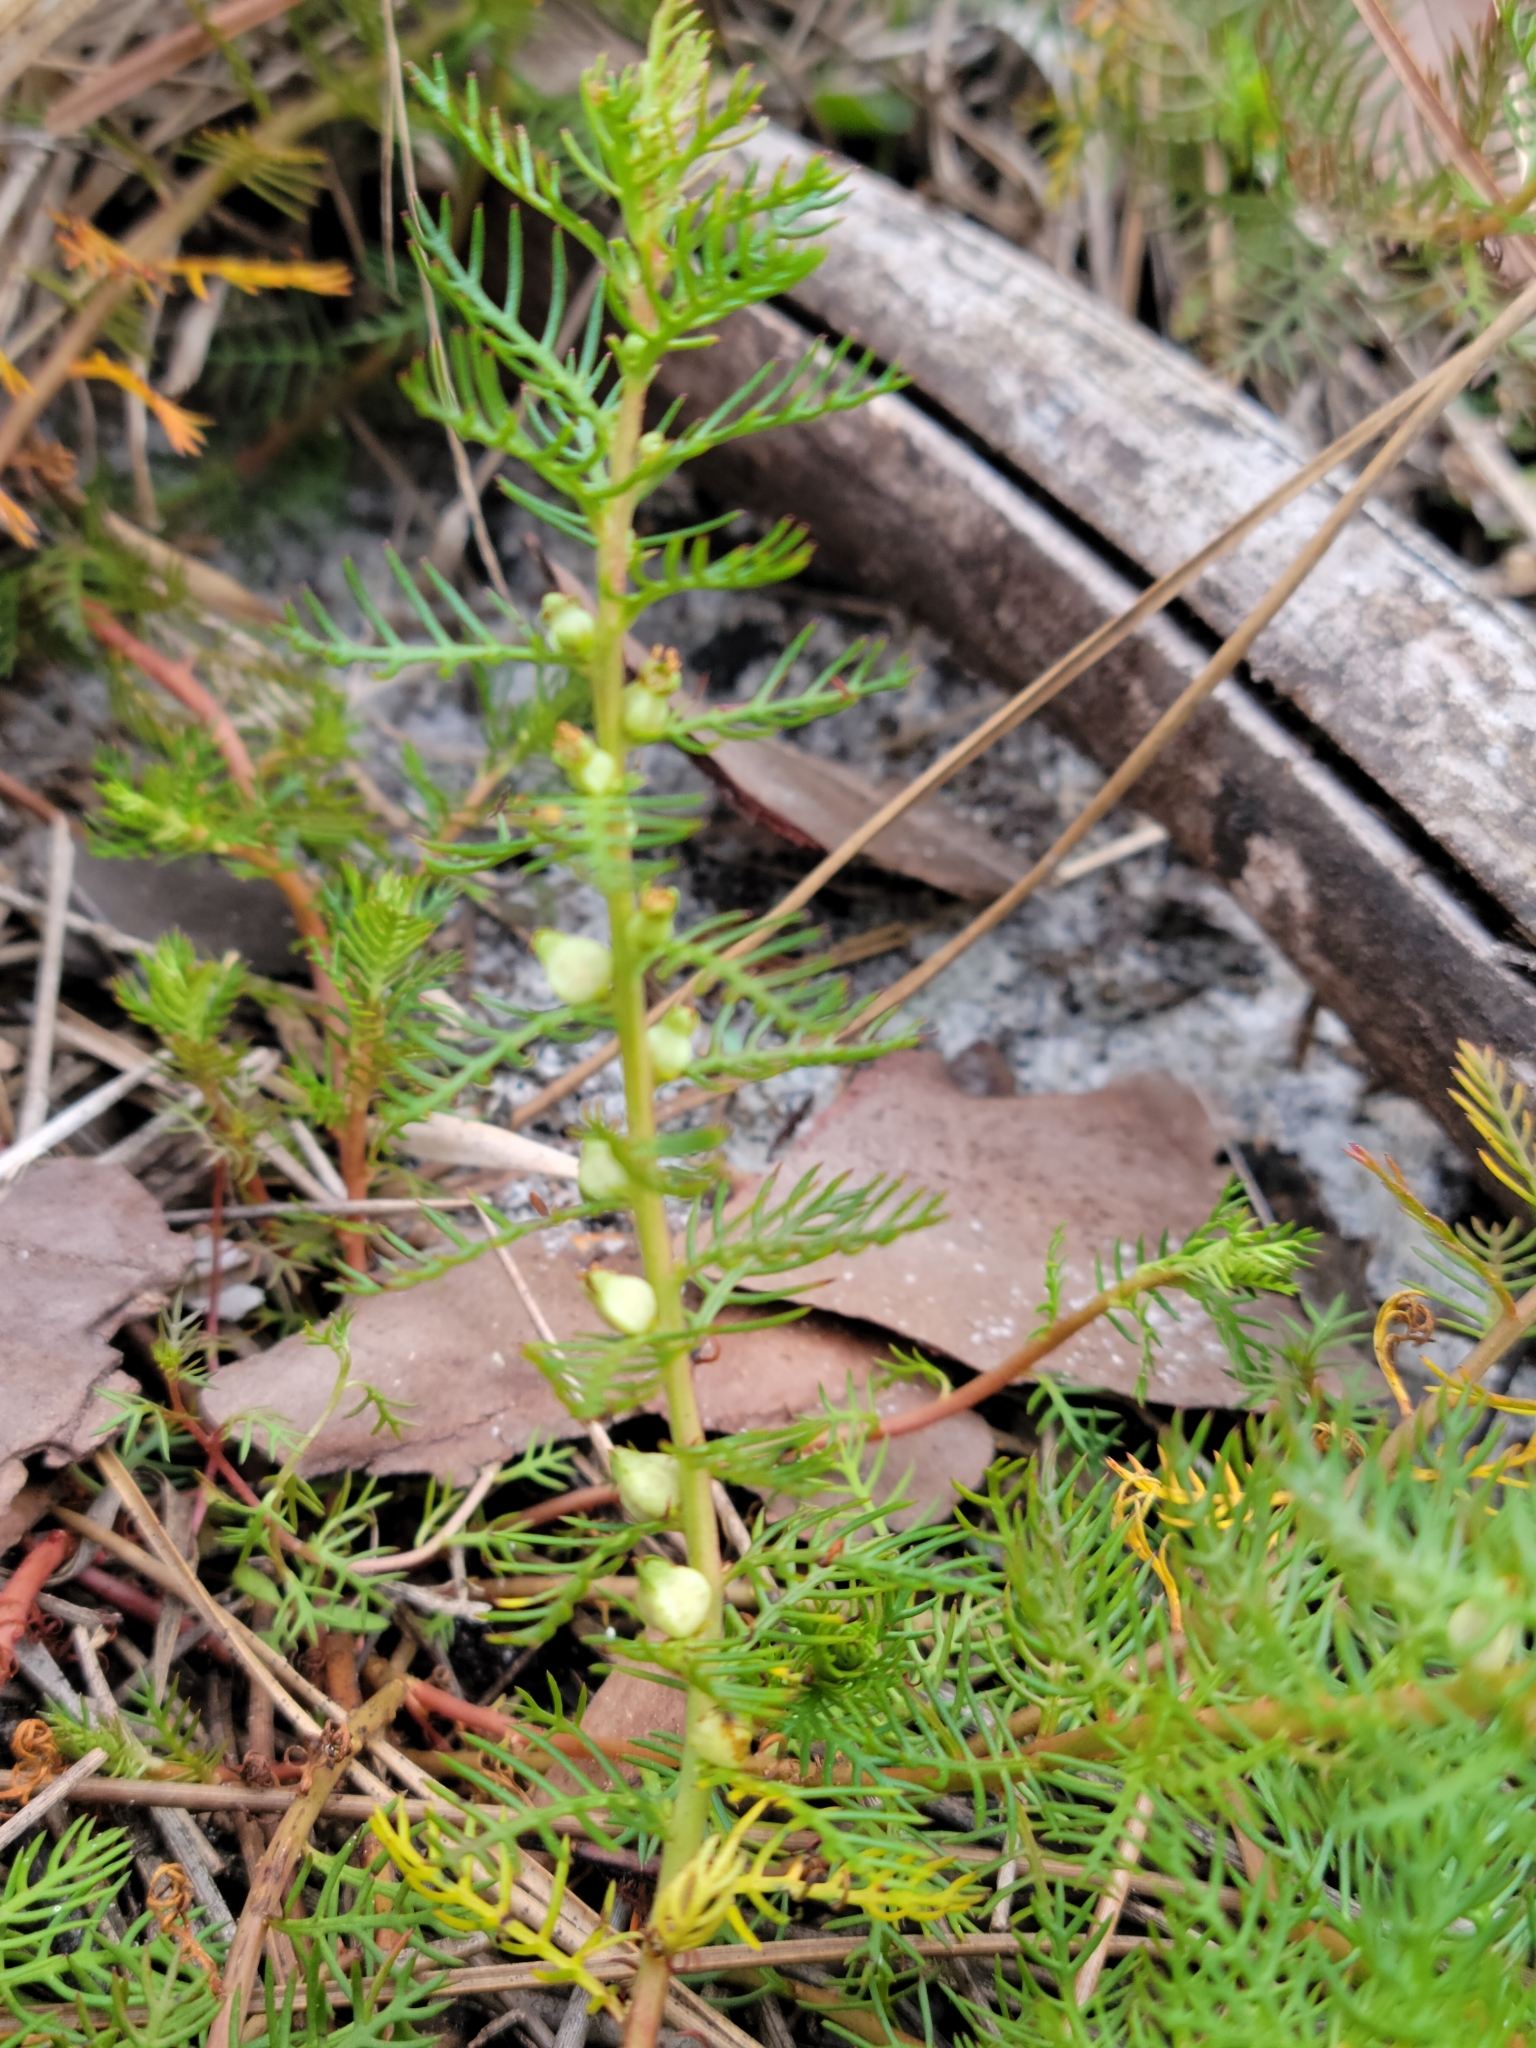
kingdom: Plantae
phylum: Tracheophyta
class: Magnoliopsida
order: Saxifragales
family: Haloragaceae
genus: Proserpinaca
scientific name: Proserpinaca pectinata
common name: Comb-leaved mermaidweed
